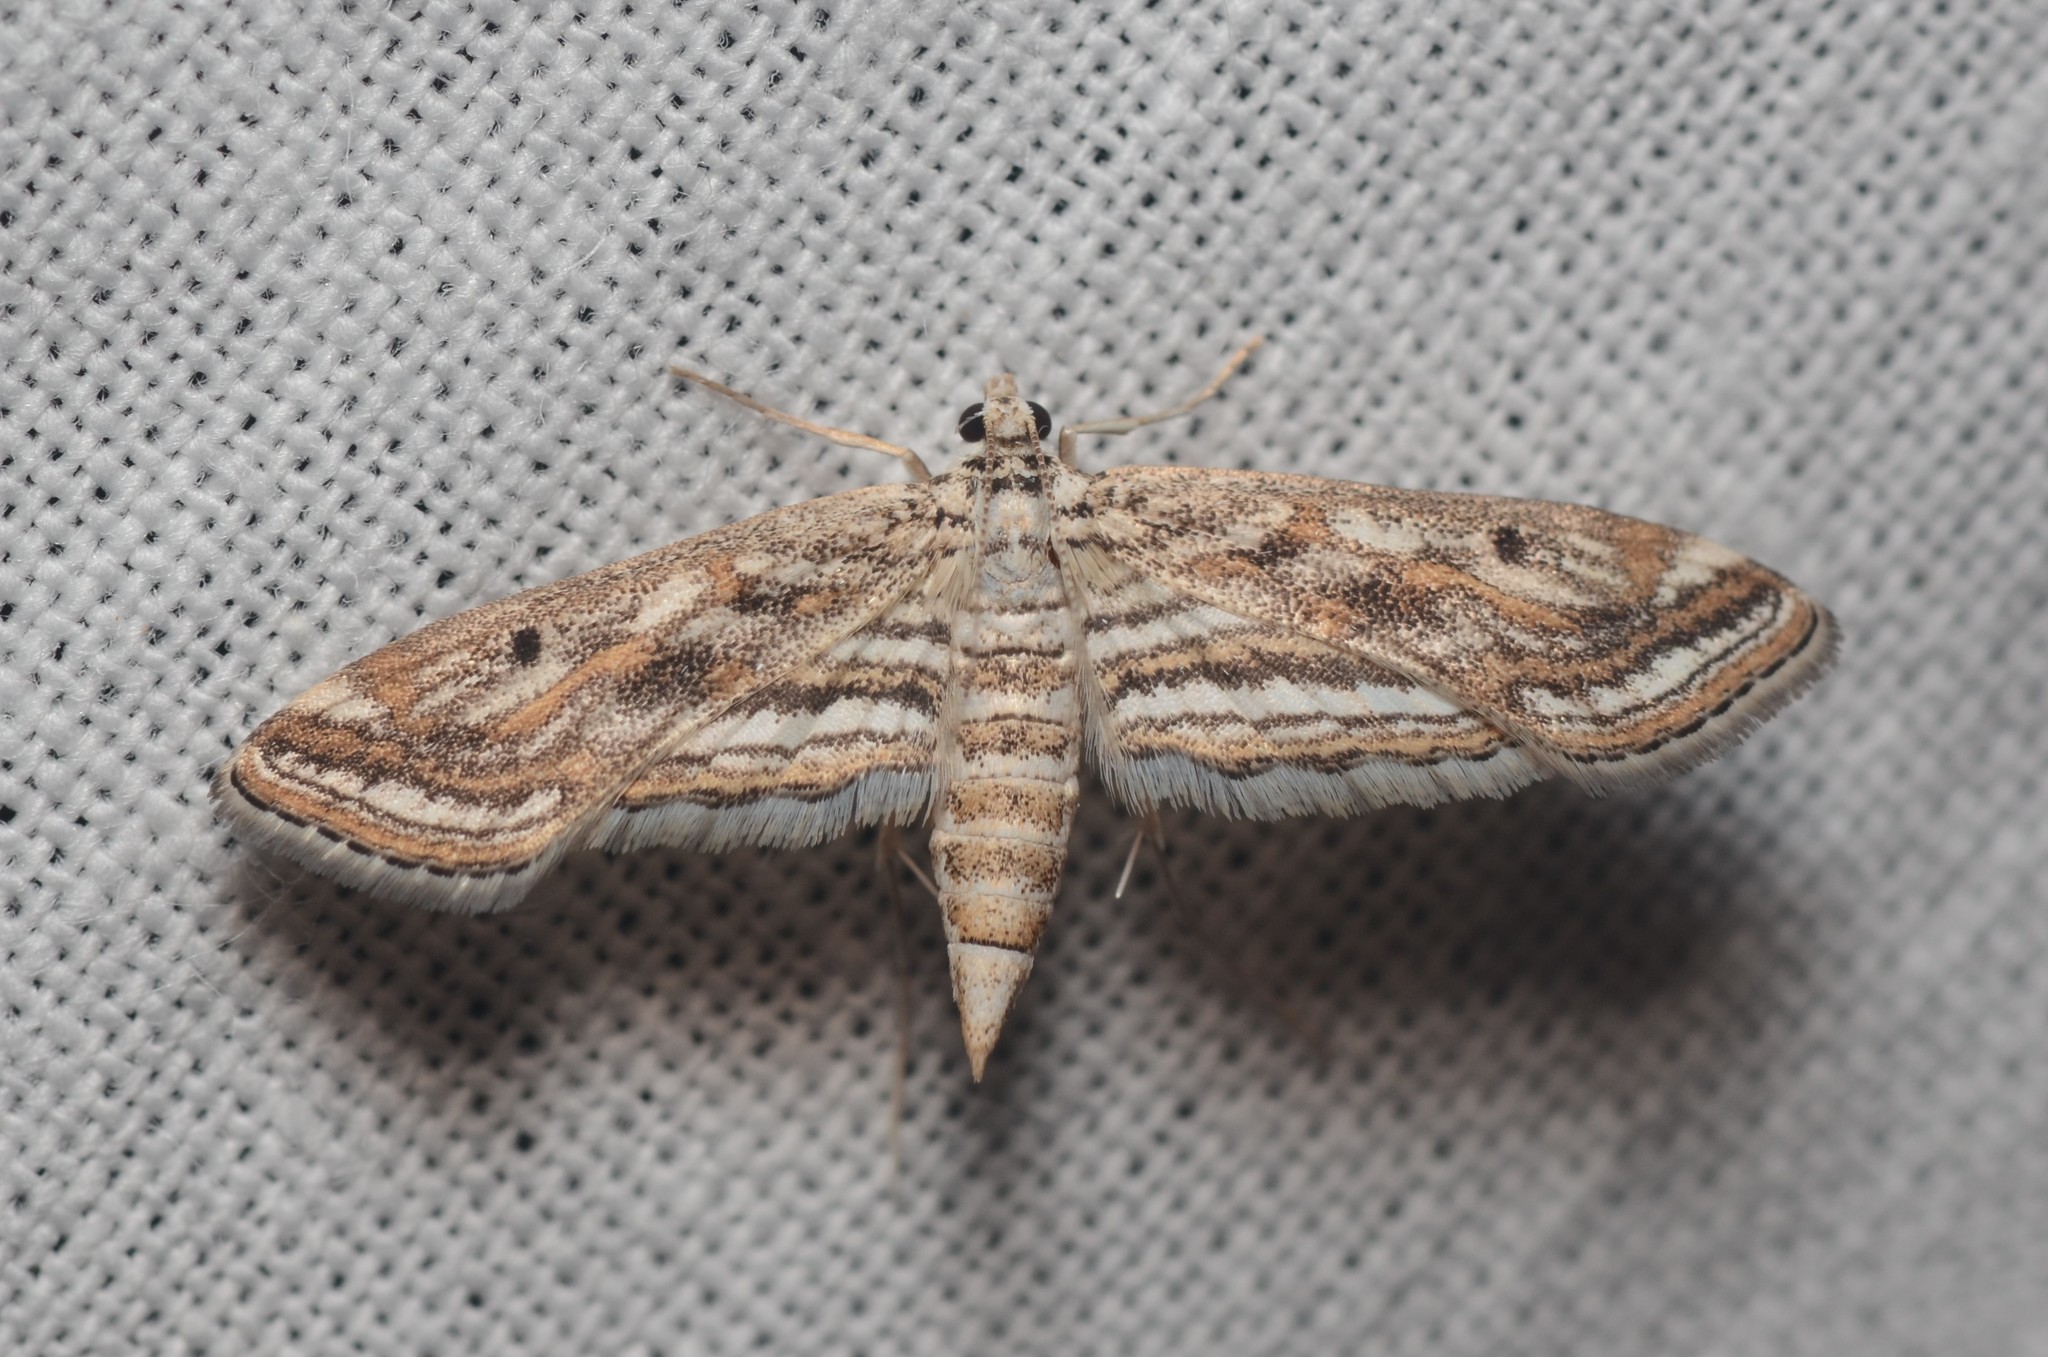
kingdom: Animalia
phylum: Arthropoda
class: Insecta
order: Lepidoptera
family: Crambidae
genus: Parapoynx
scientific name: Parapoynx fluctuosalis
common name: Moth
